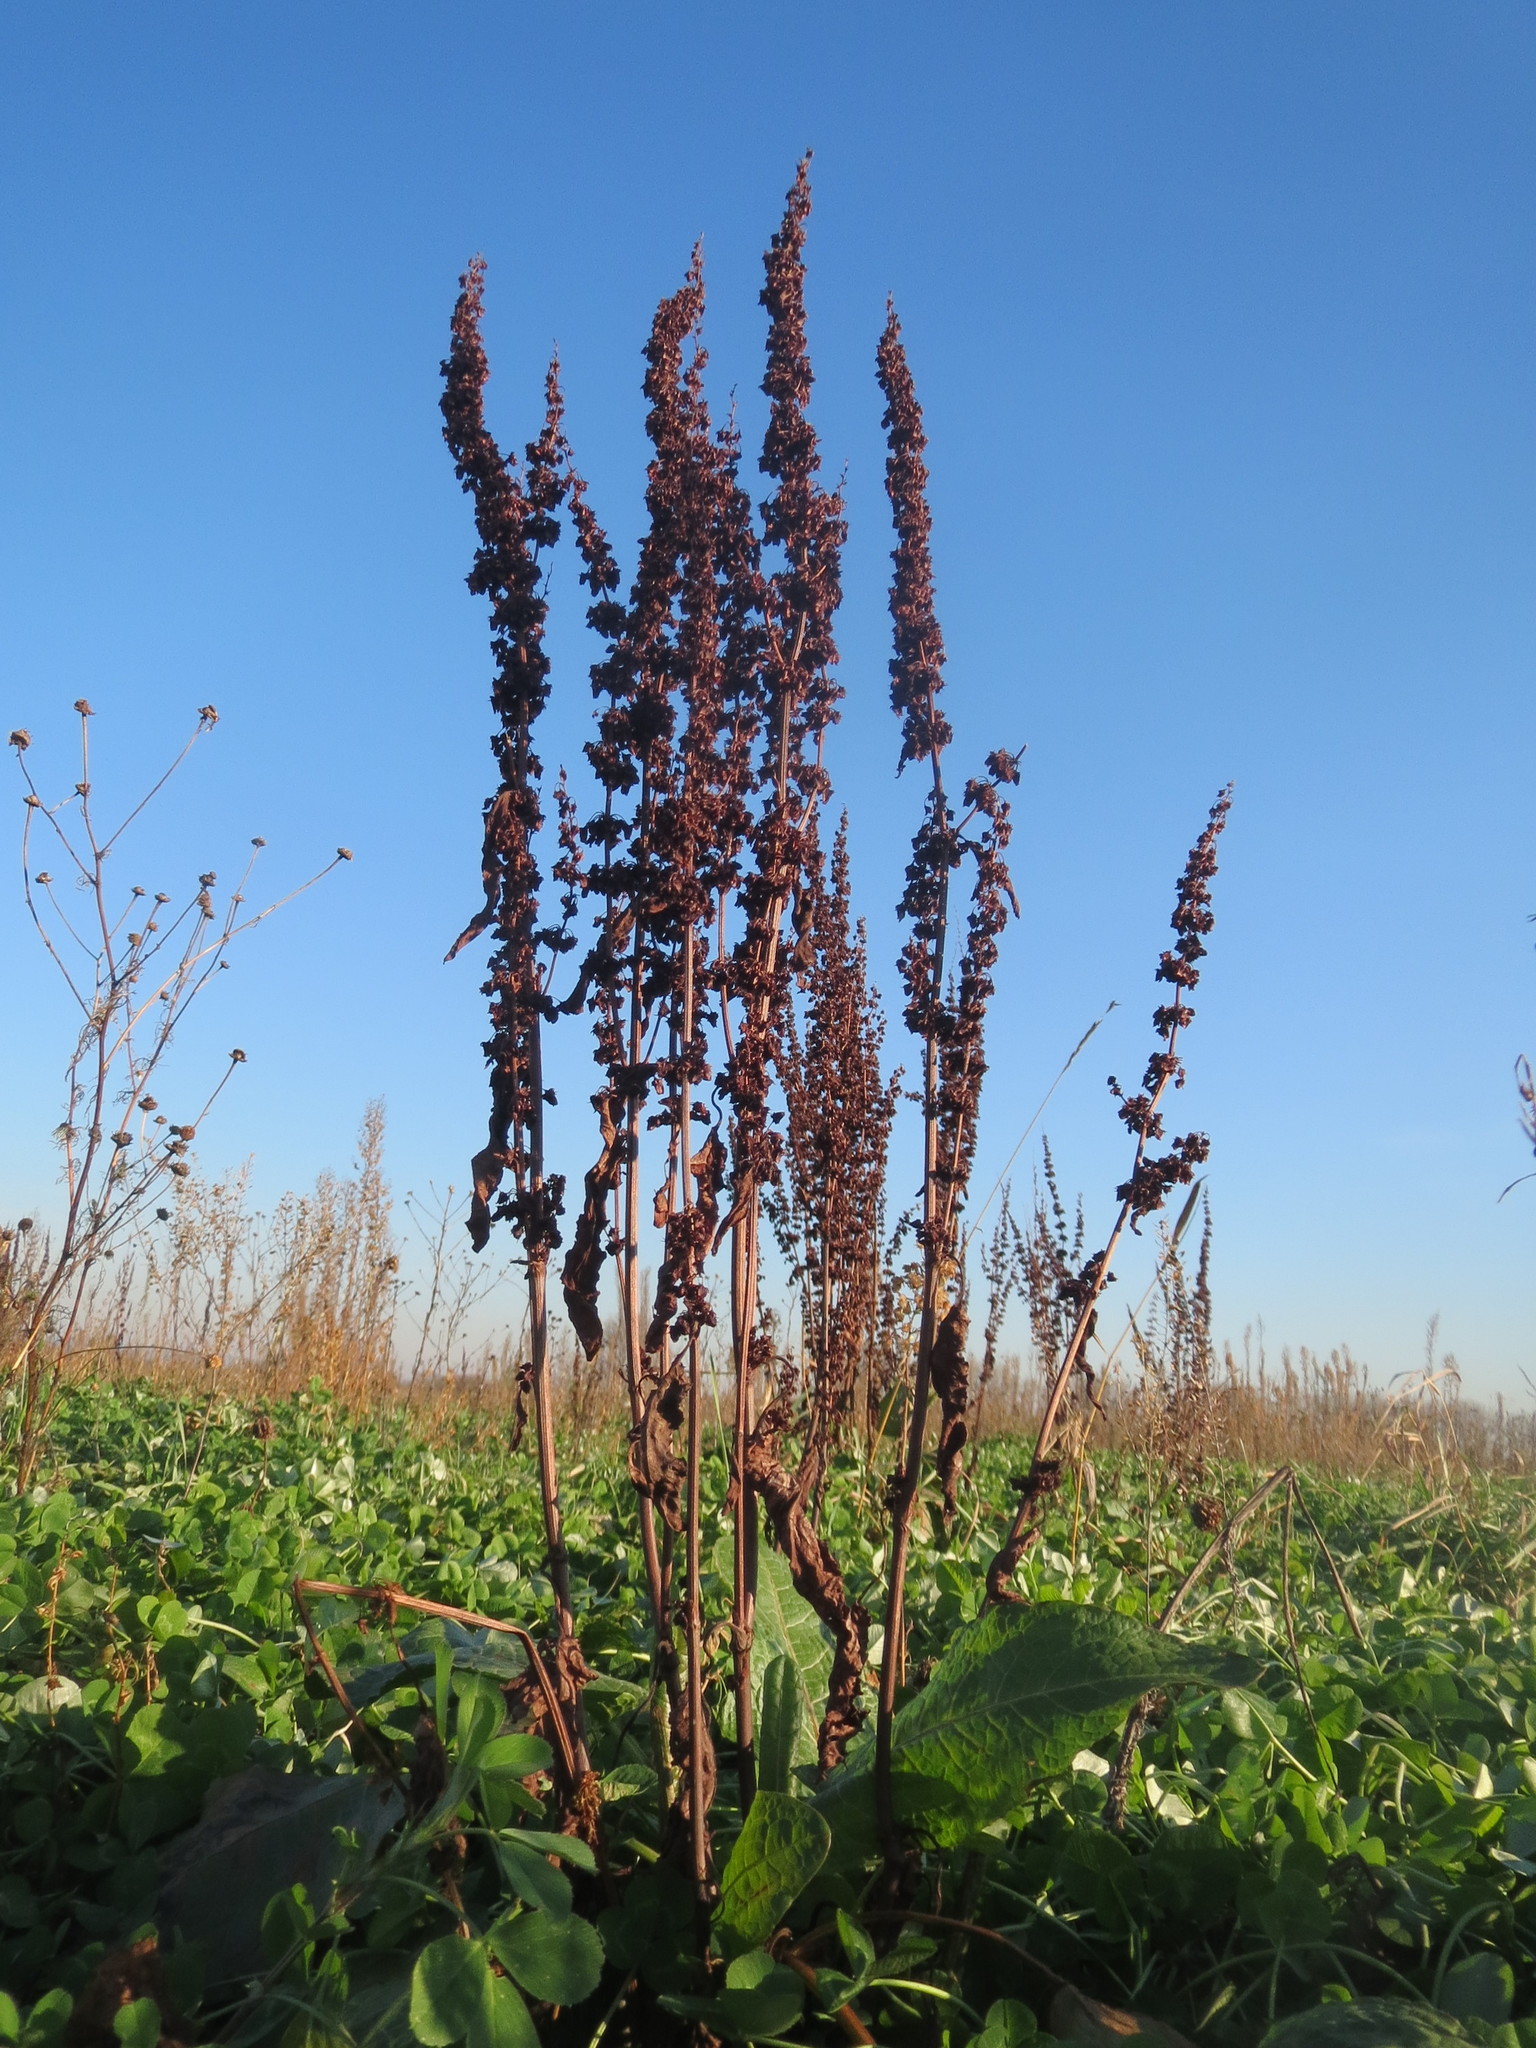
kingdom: Plantae
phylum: Tracheophyta
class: Magnoliopsida
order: Caryophyllales
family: Polygonaceae
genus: Rumex
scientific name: Rumex obtusifolius
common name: Bitter dock
